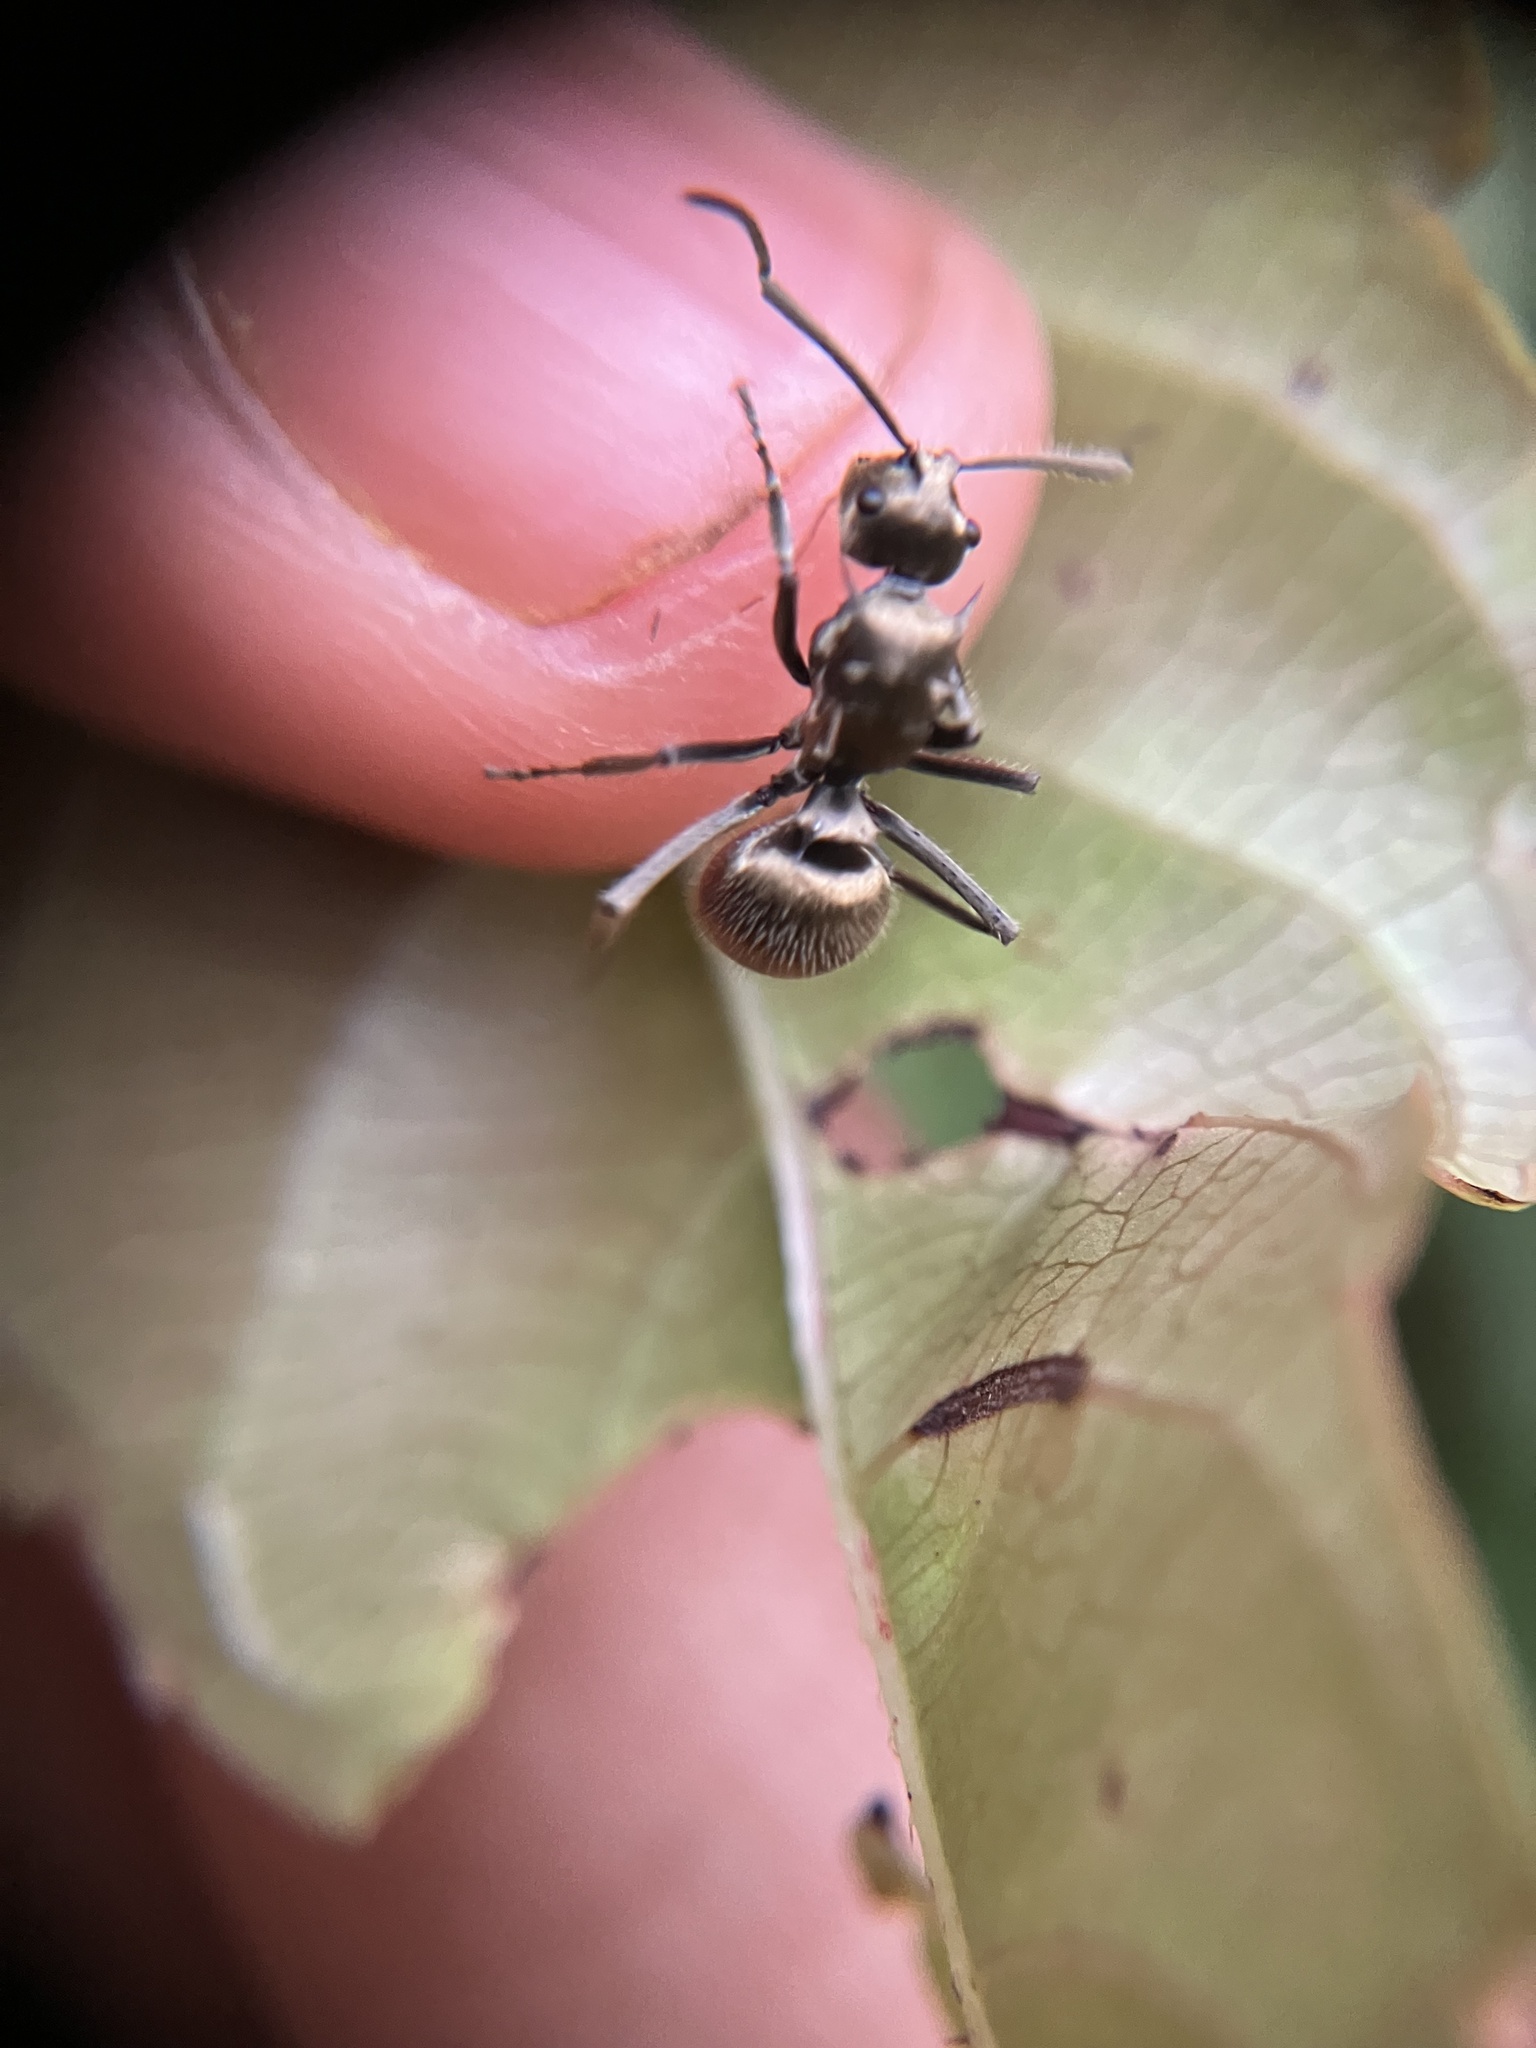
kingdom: Animalia
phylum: Arthropoda
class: Insecta
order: Hymenoptera
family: Formicidae
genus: Polyrhachis
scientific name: Polyrhachis illaudata
